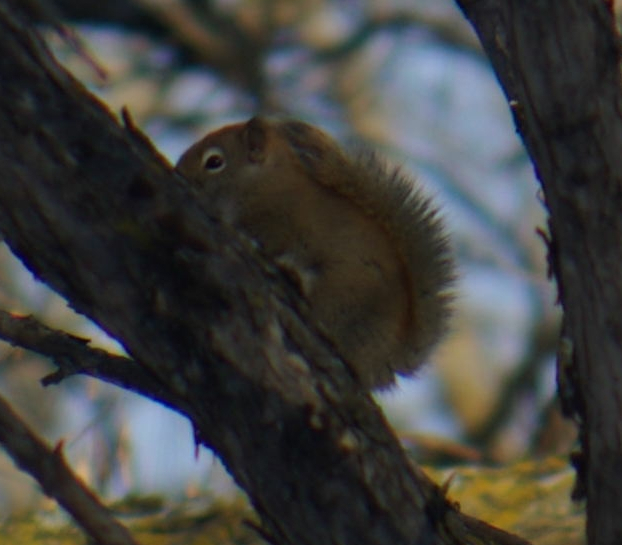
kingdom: Animalia
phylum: Chordata
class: Mammalia
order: Rodentia
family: Sciuridae
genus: Tamiasciurus
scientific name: Tamiasciurus hudsonicus
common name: Red squirrel
